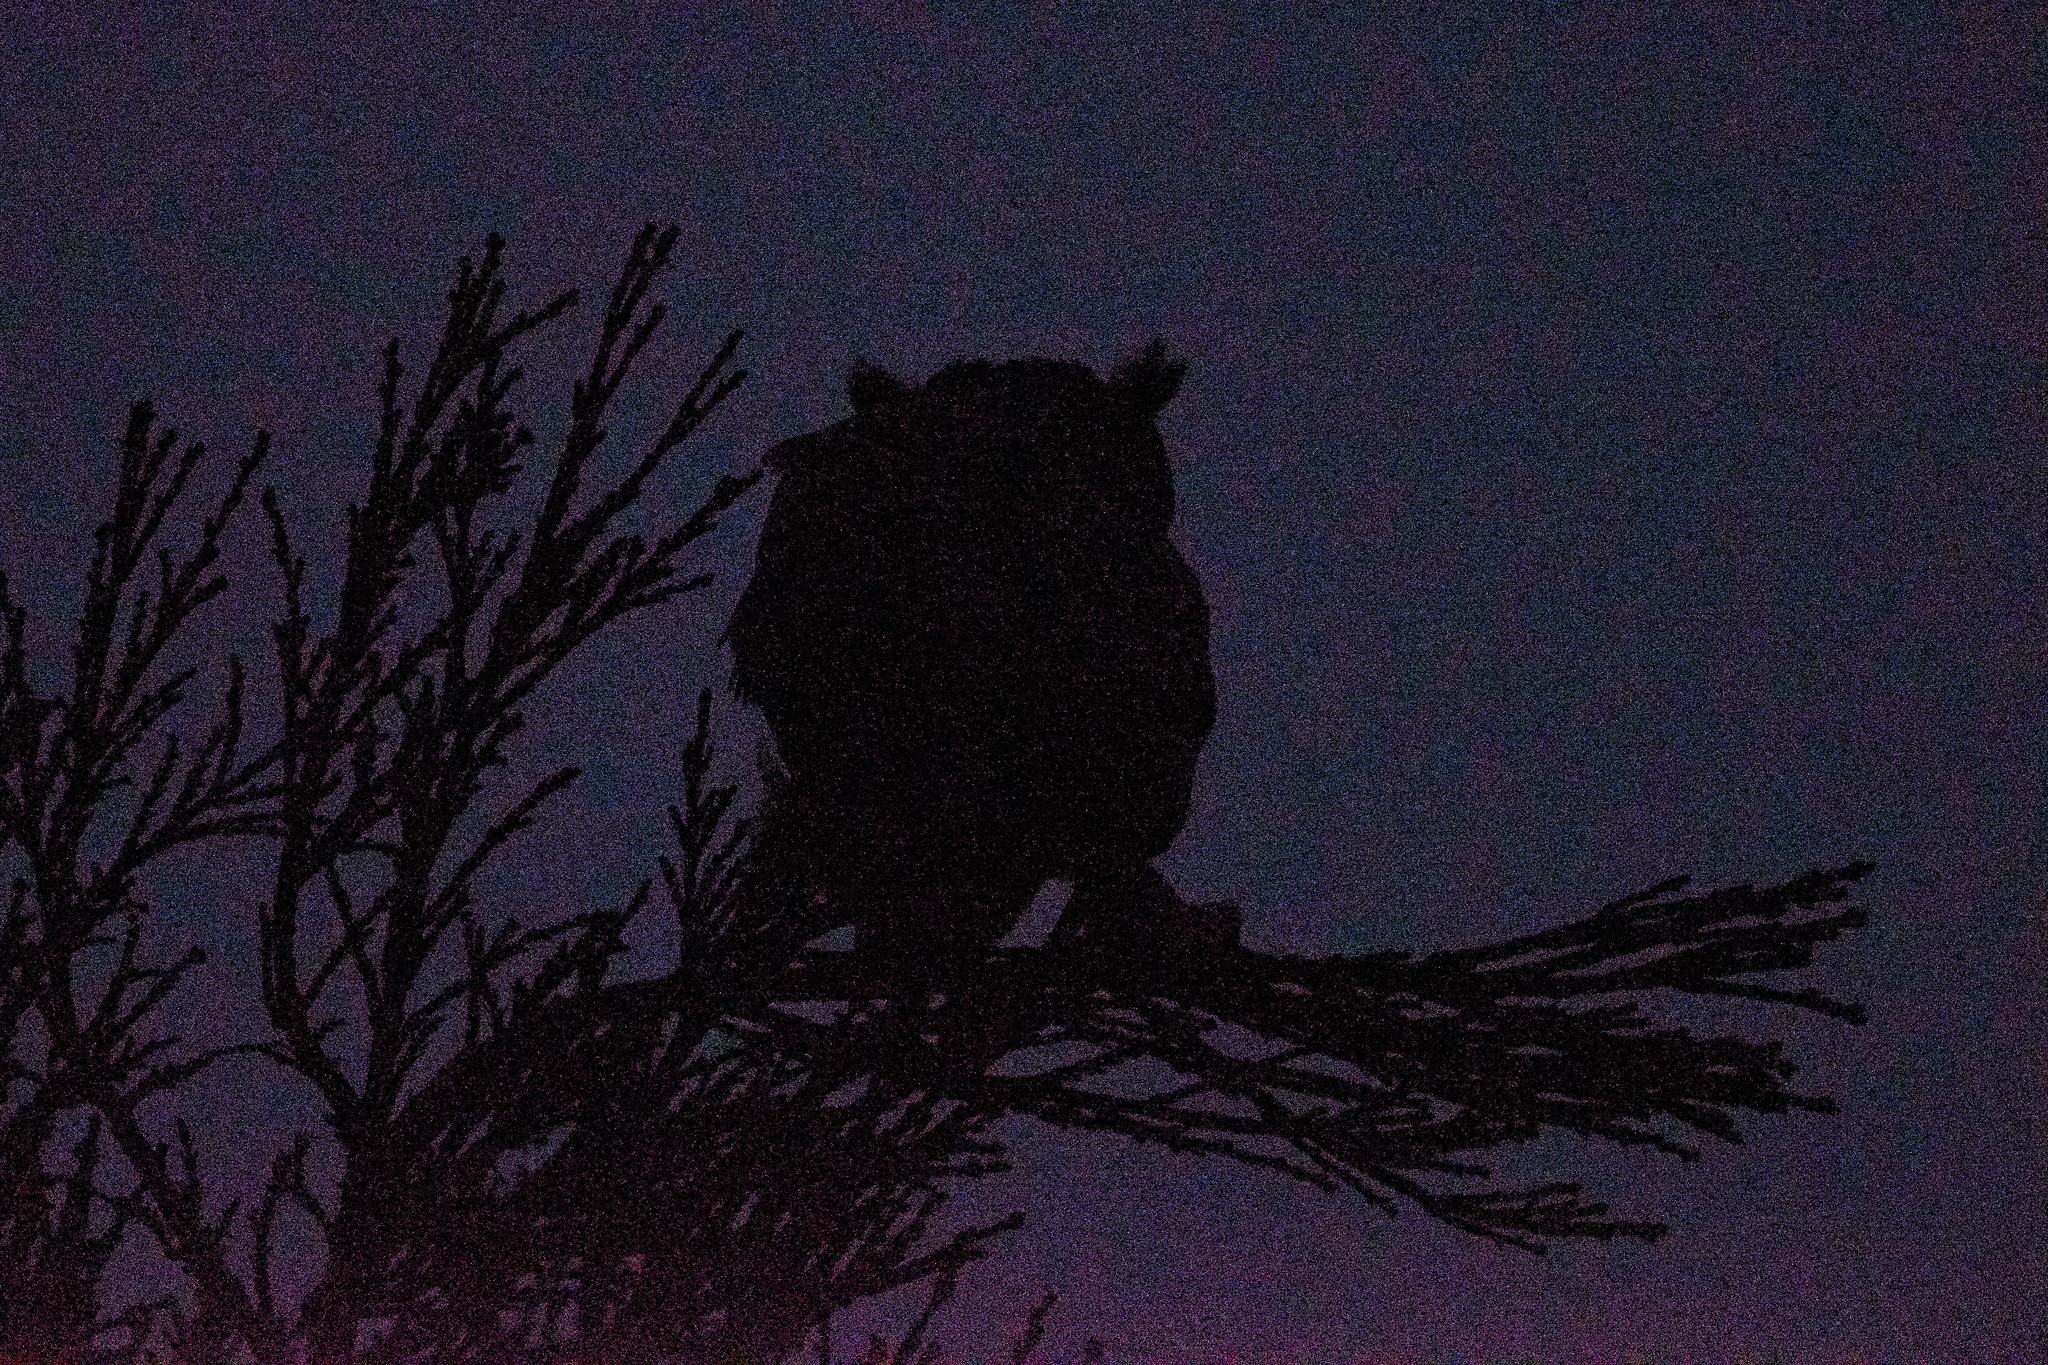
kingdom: Animalia
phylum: Chordata
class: Aves
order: Strigiformes
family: Strigidae
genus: Bubo
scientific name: Bubo virginianus
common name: Great horned owl
